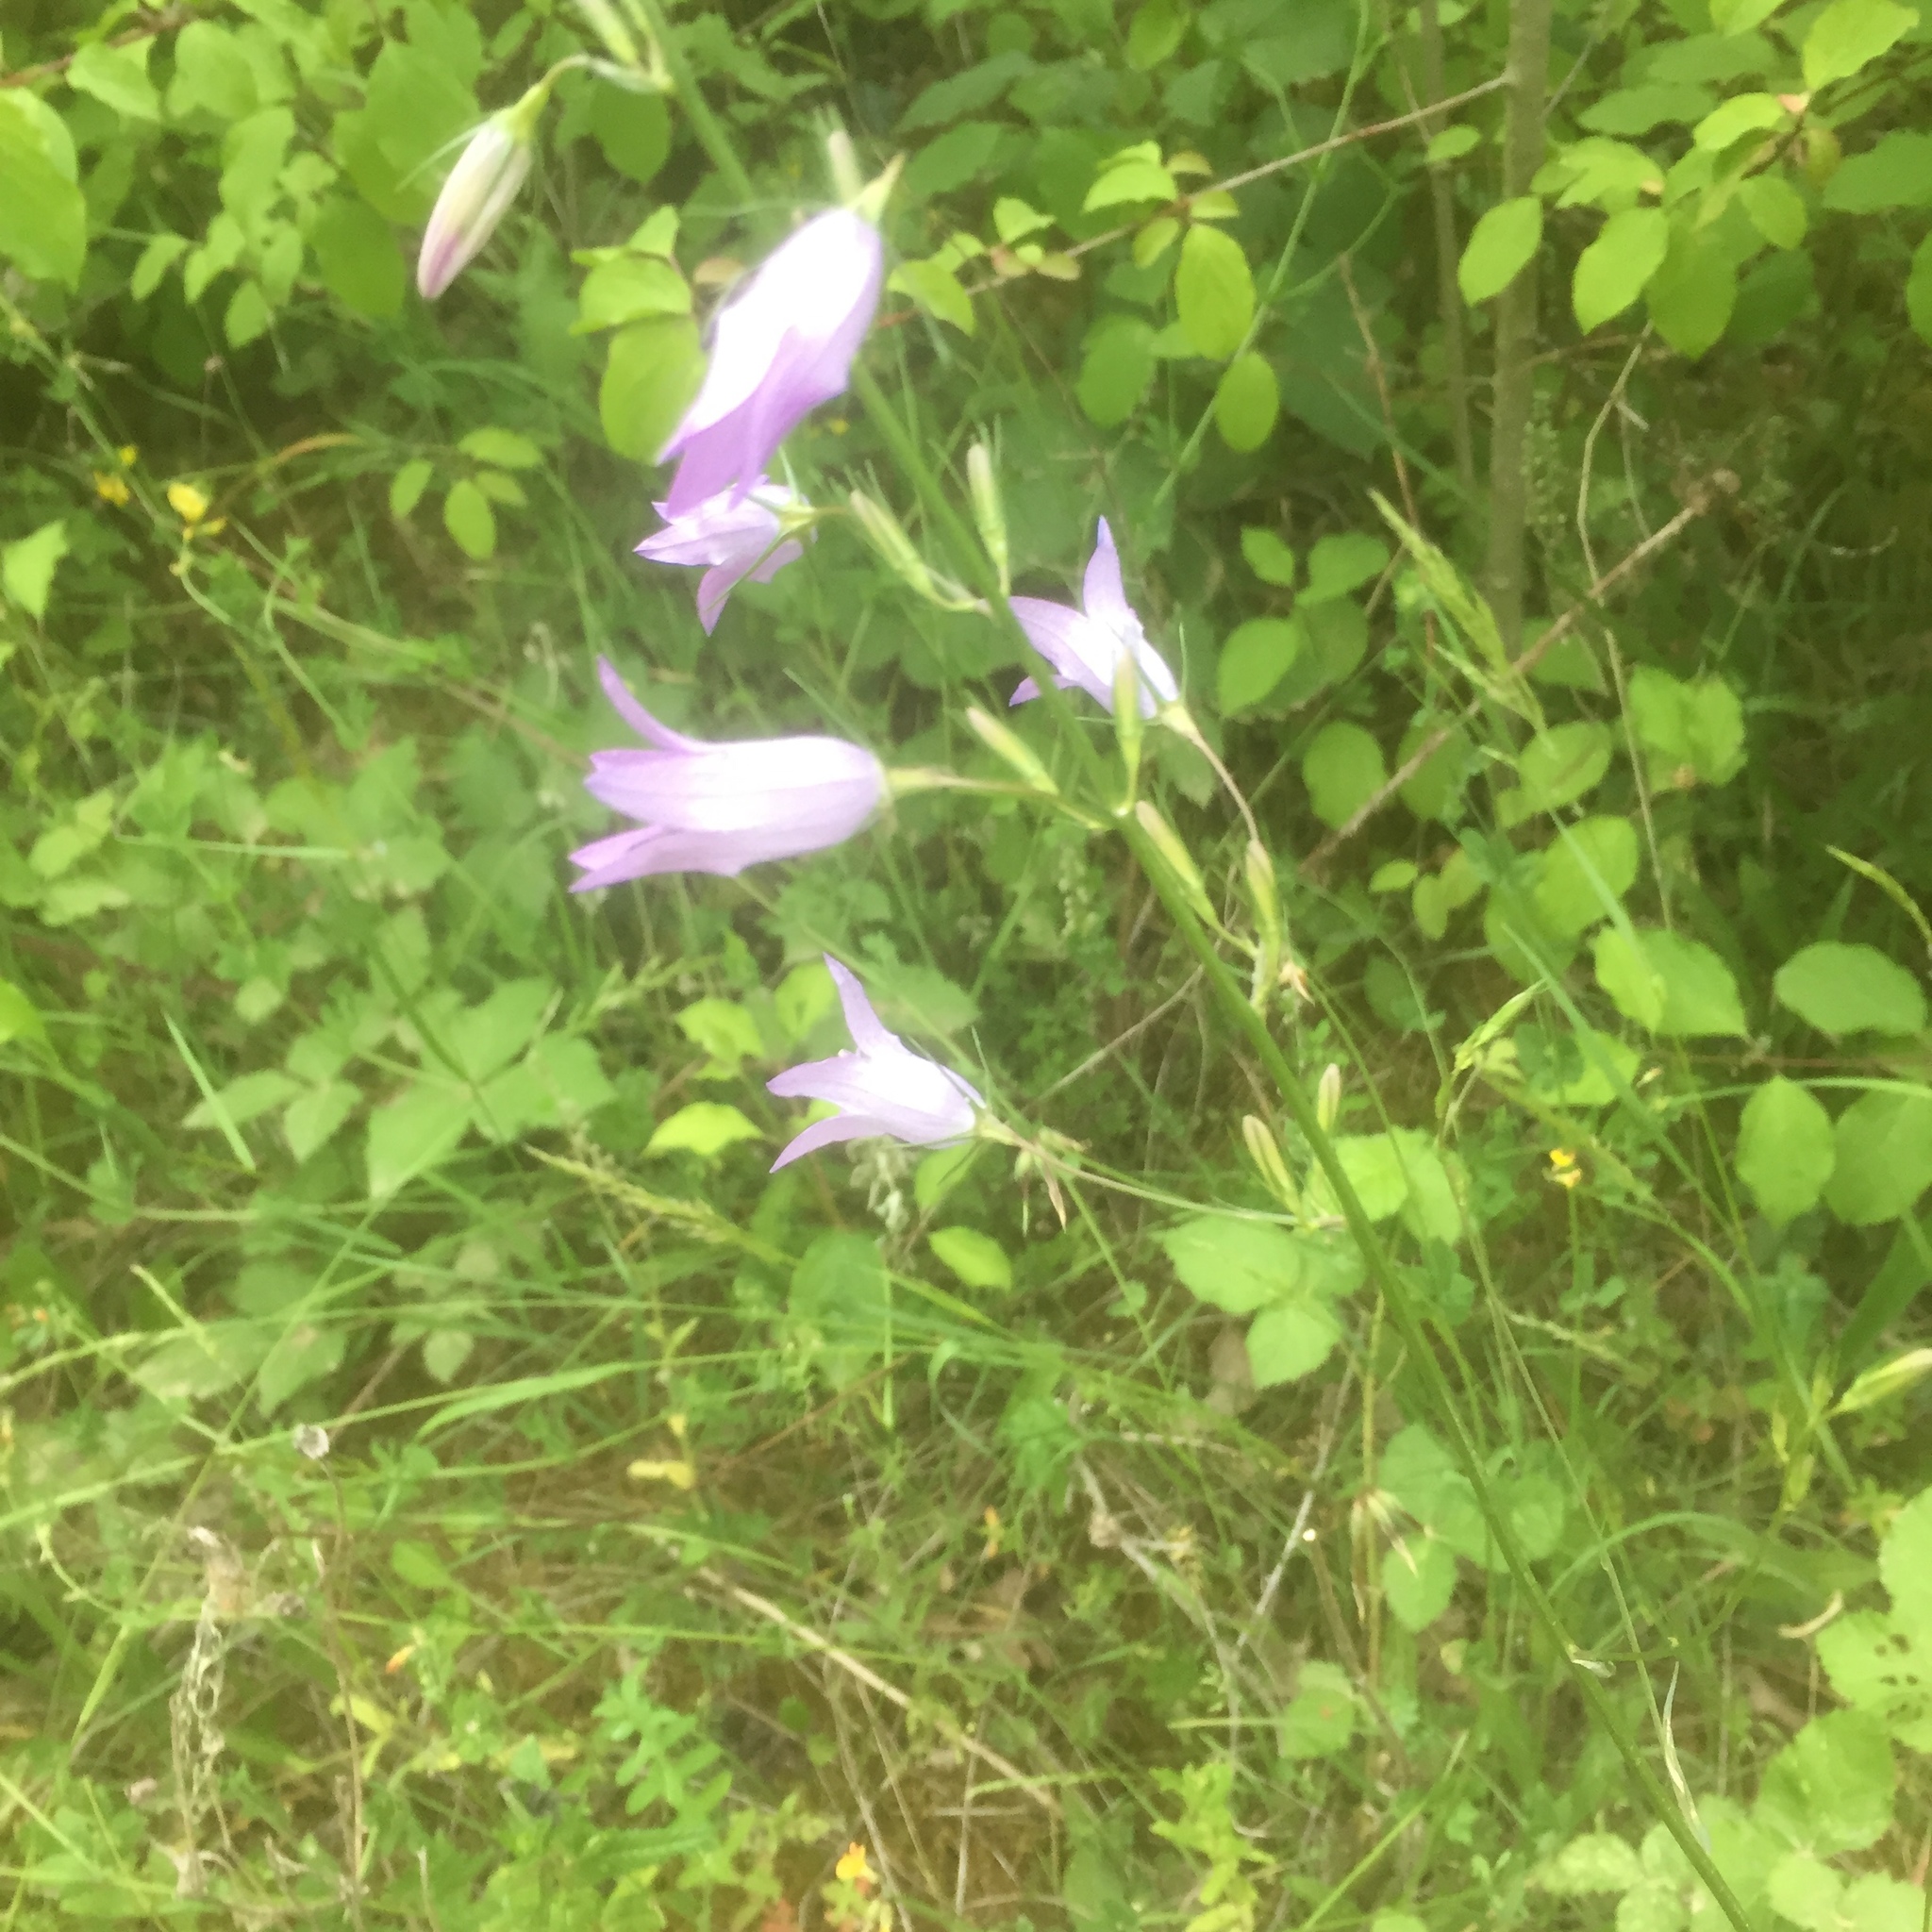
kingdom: Plantae
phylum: Tracheophyta
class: Magnoliopsida
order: Asterales
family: Campanulaceae
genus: Campanula
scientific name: Campanula rapunculus
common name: Rampion bellflower
